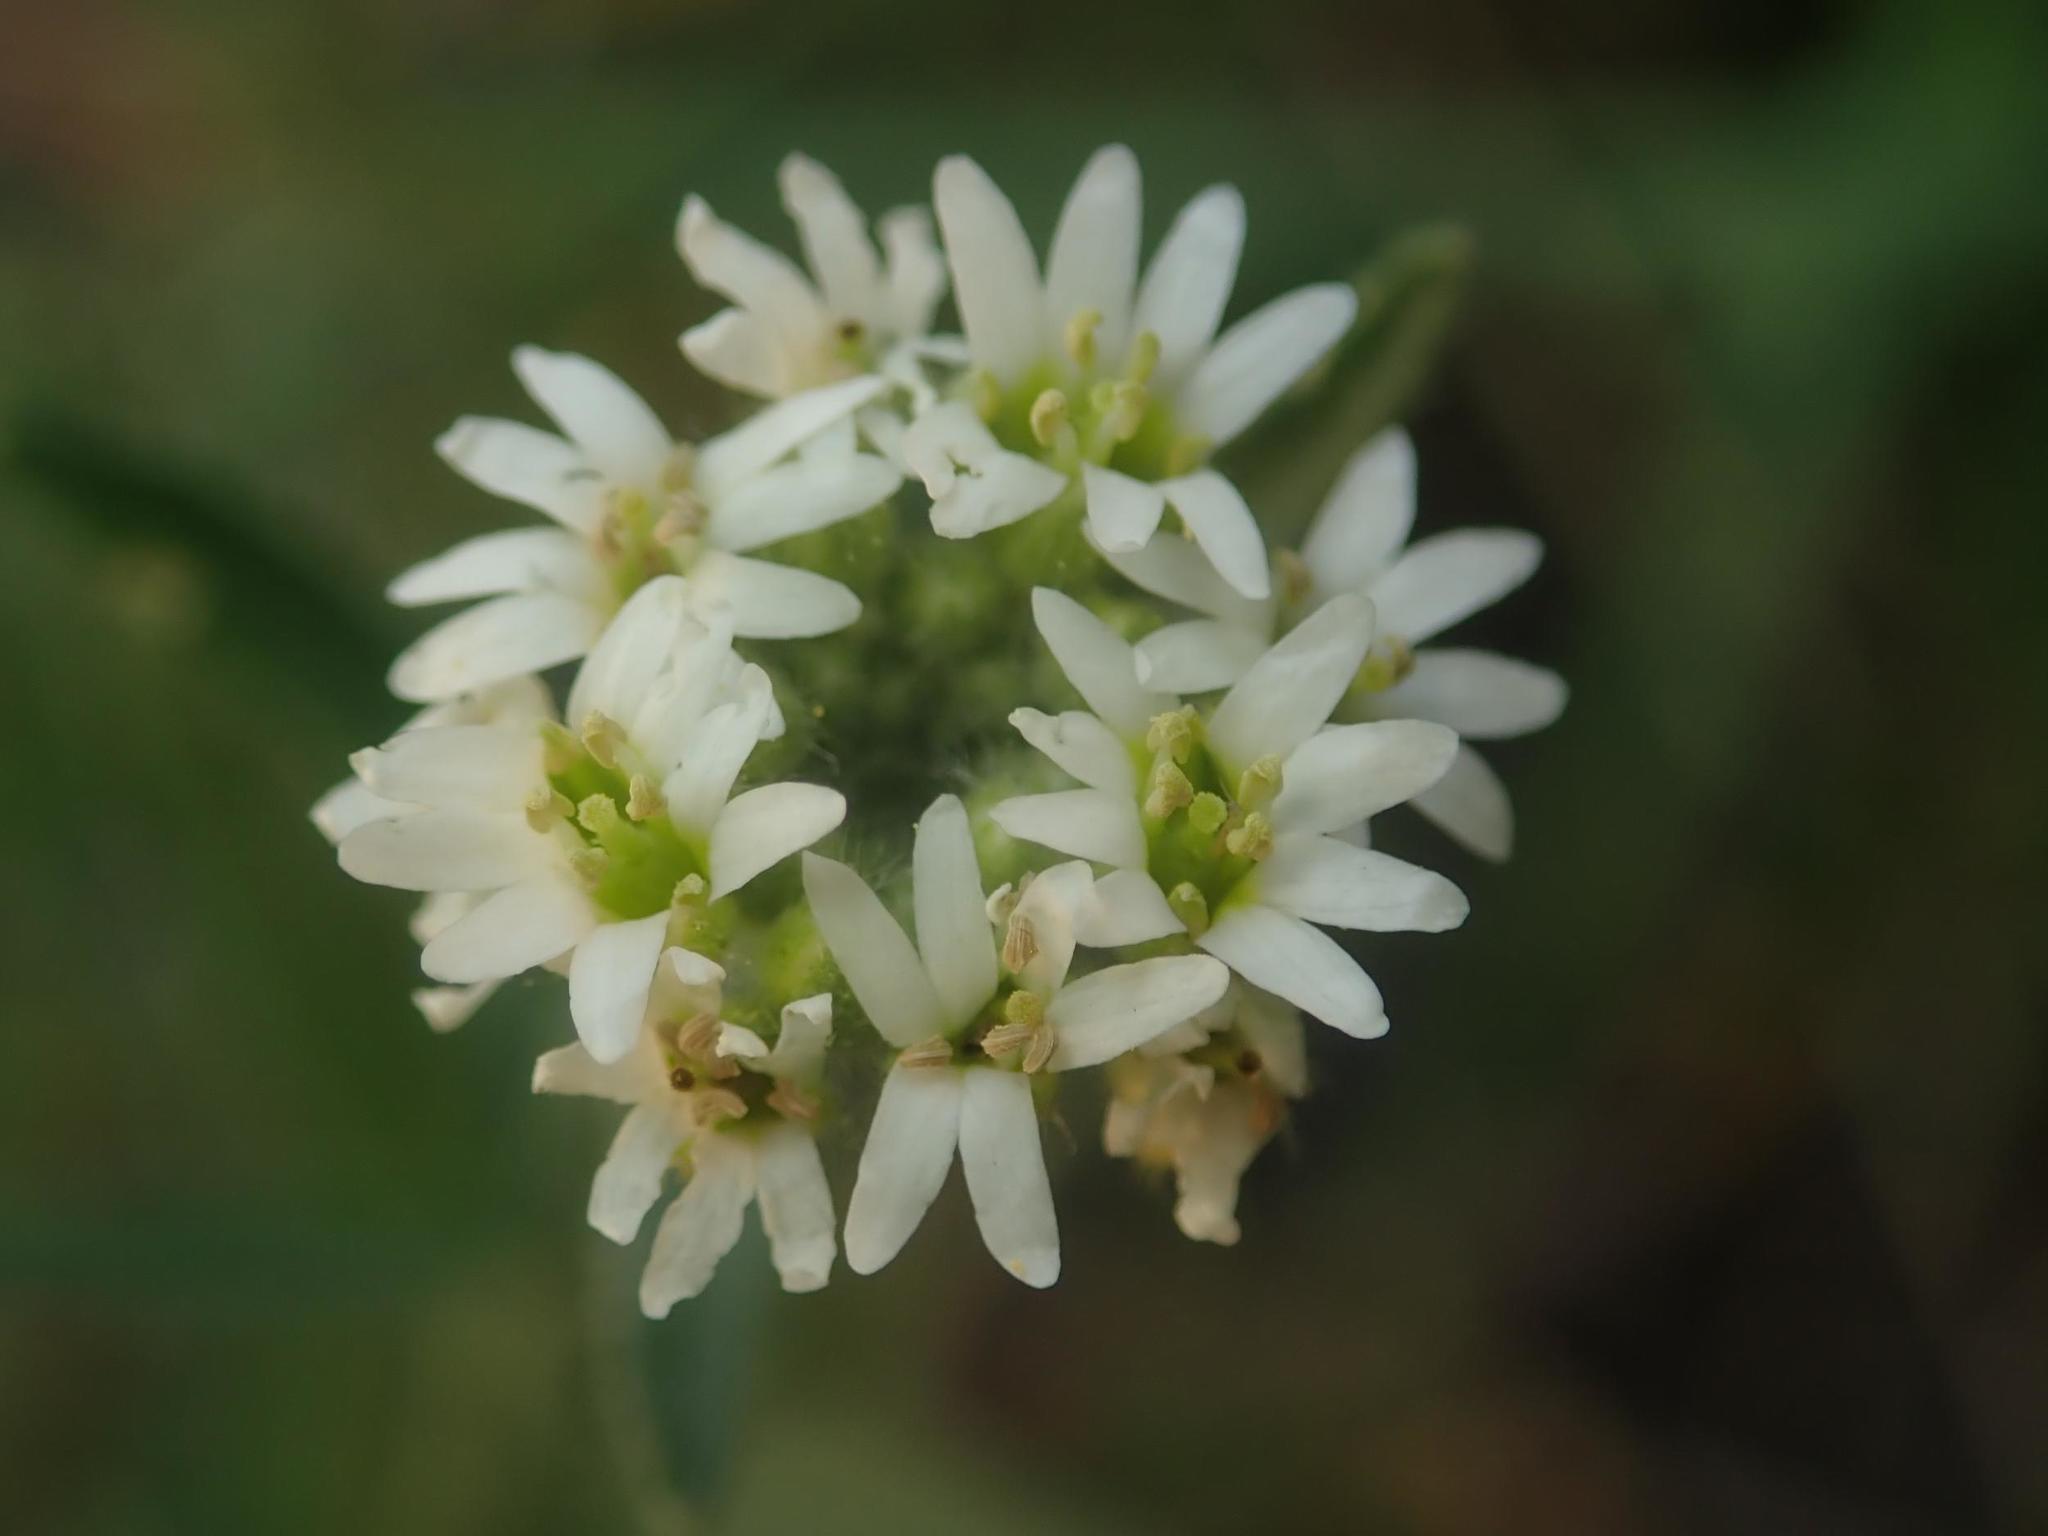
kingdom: Plantae
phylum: Tracheophyta
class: Magnoliopsida
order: Brassicales
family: Brassicaceae
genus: Berteroa
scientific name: Berteroa incana
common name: Hoary alison
